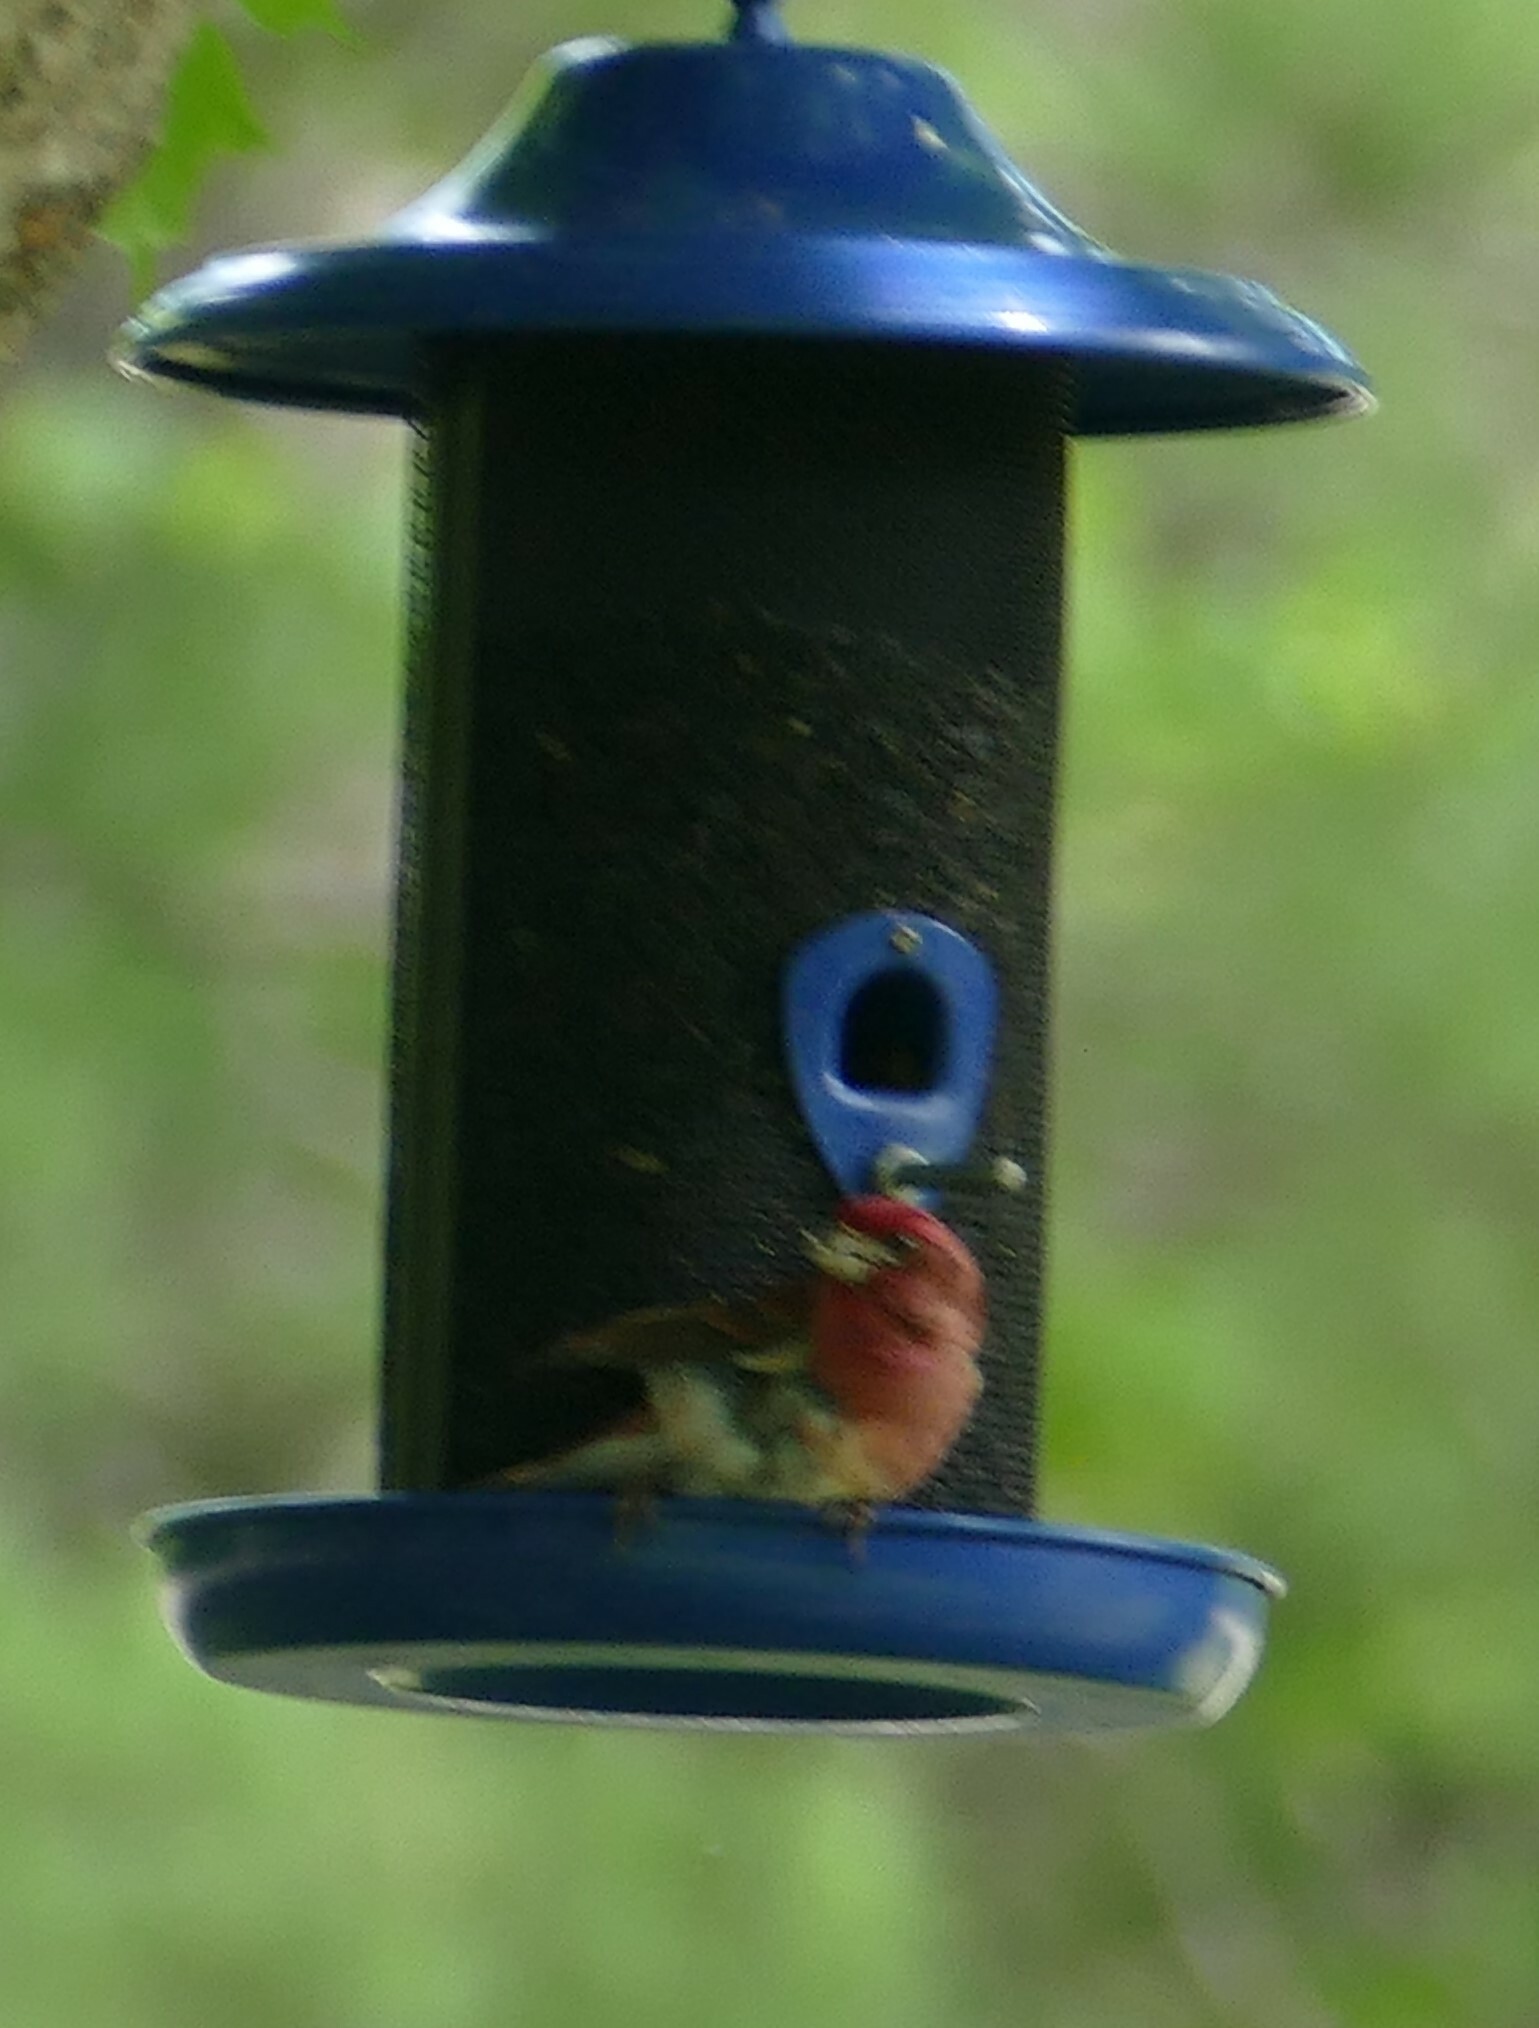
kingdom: Animalia
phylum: Chordata
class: Aves
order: Passeriformes
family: Fringillidae
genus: Haemorhous
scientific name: Haemorhous purpureus
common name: Purple finch
